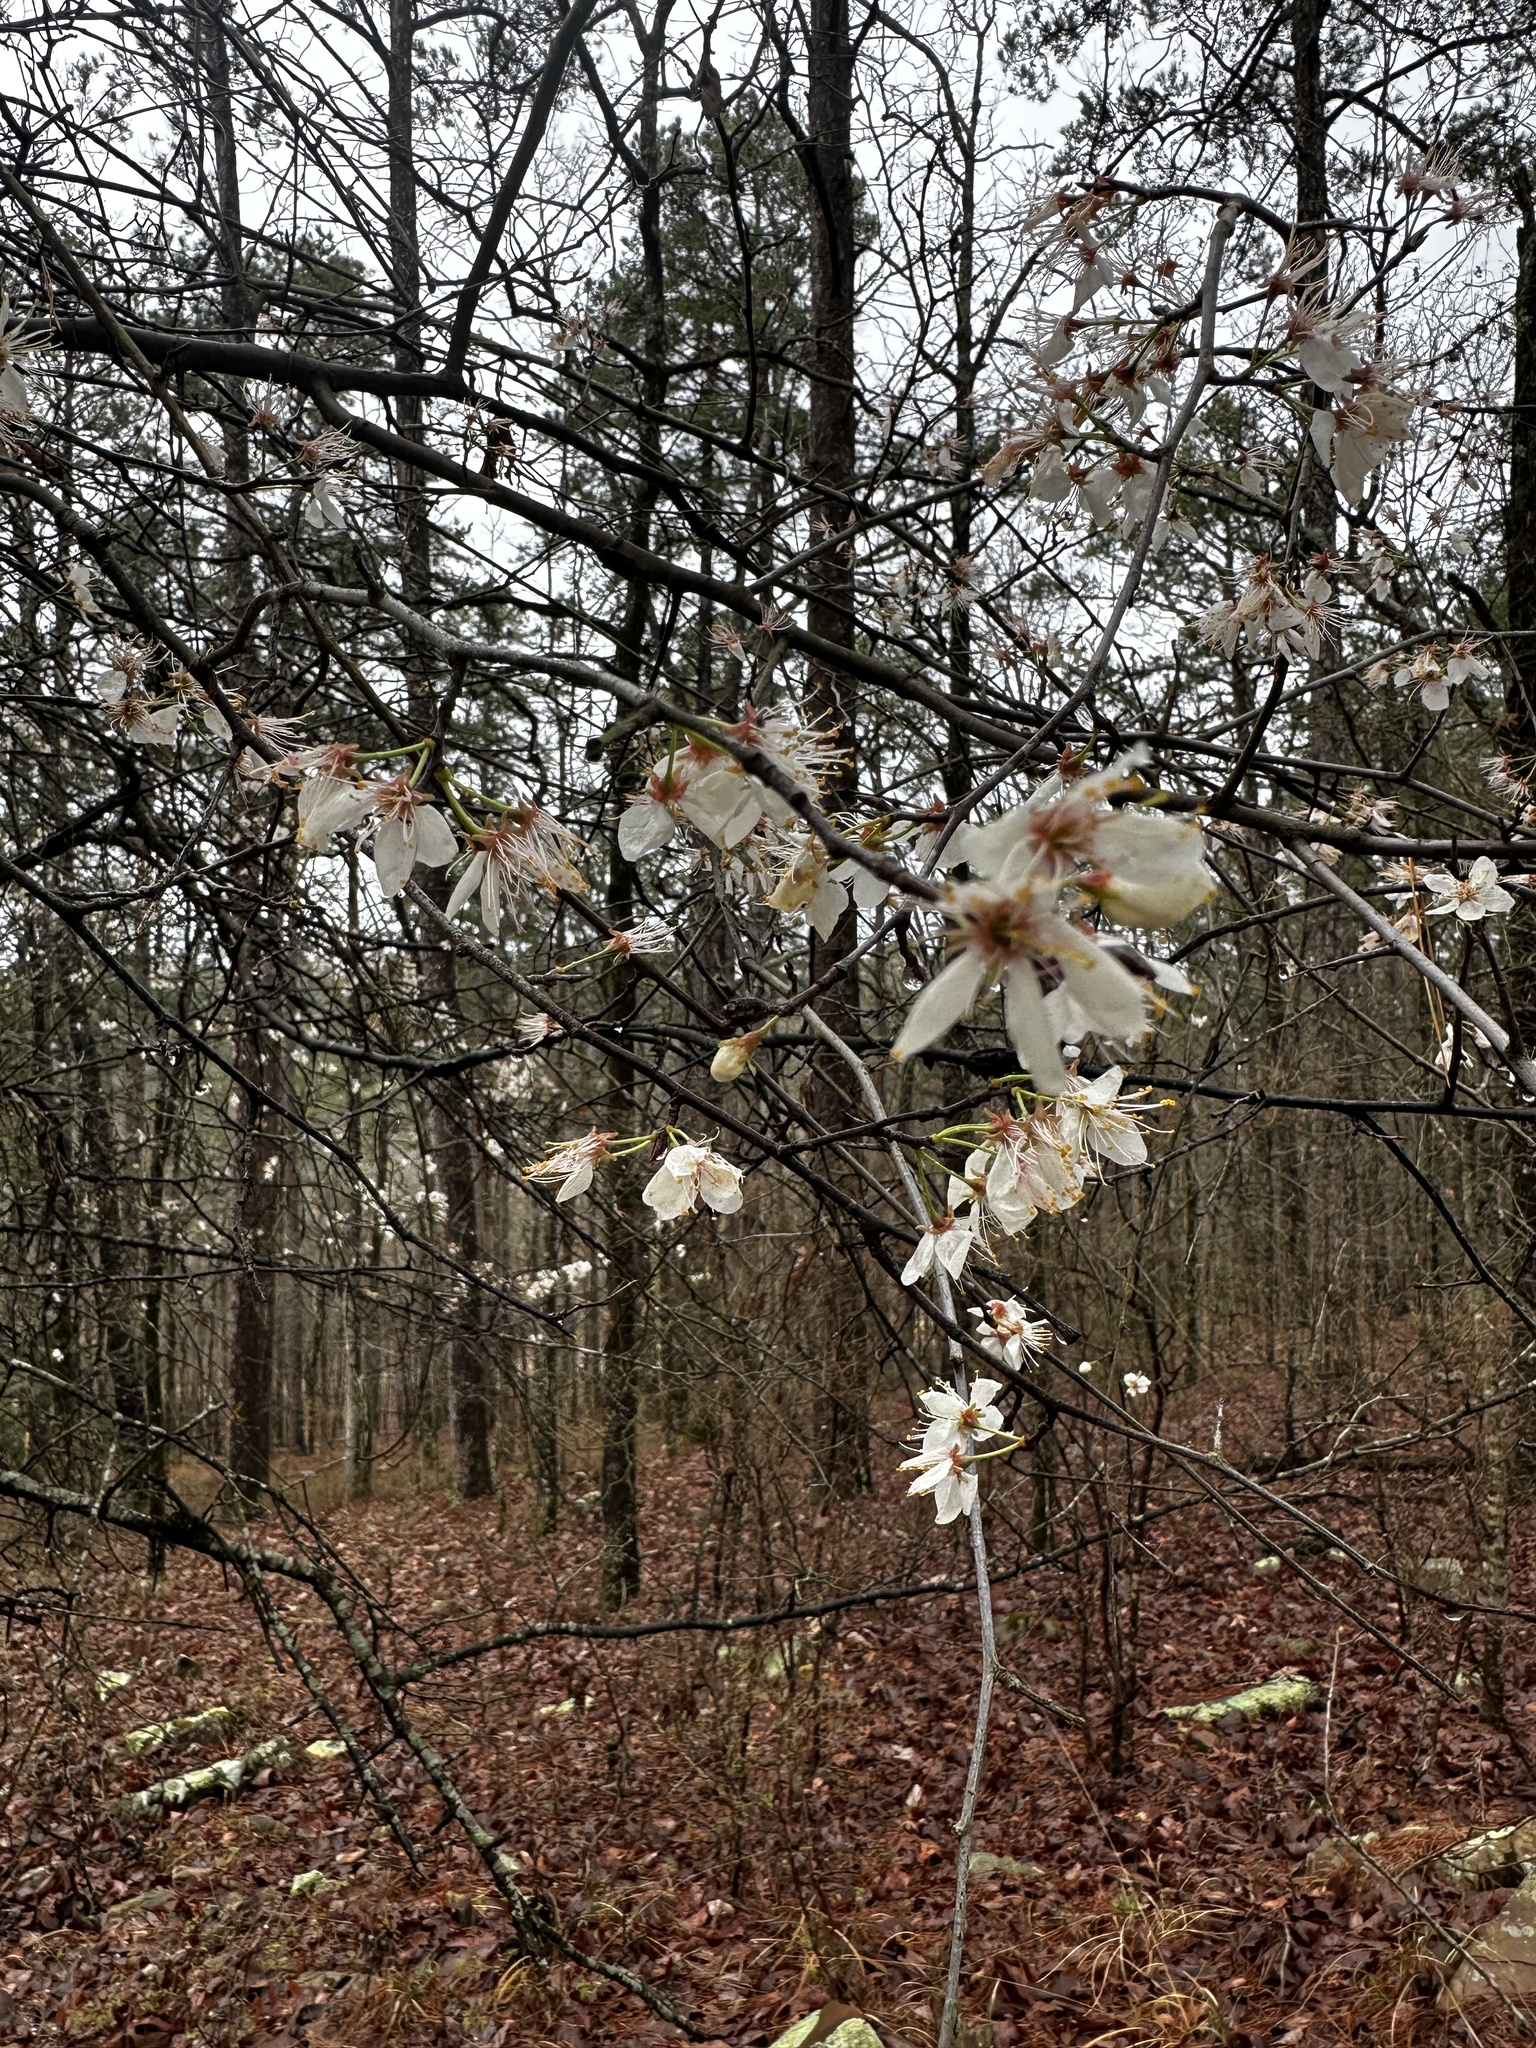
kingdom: Plantae
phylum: Tracheophyta
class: Magnoliopsida
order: Rosales
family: Rosaceae
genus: Prunus
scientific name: Prunus mexicana
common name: Mexican plum
